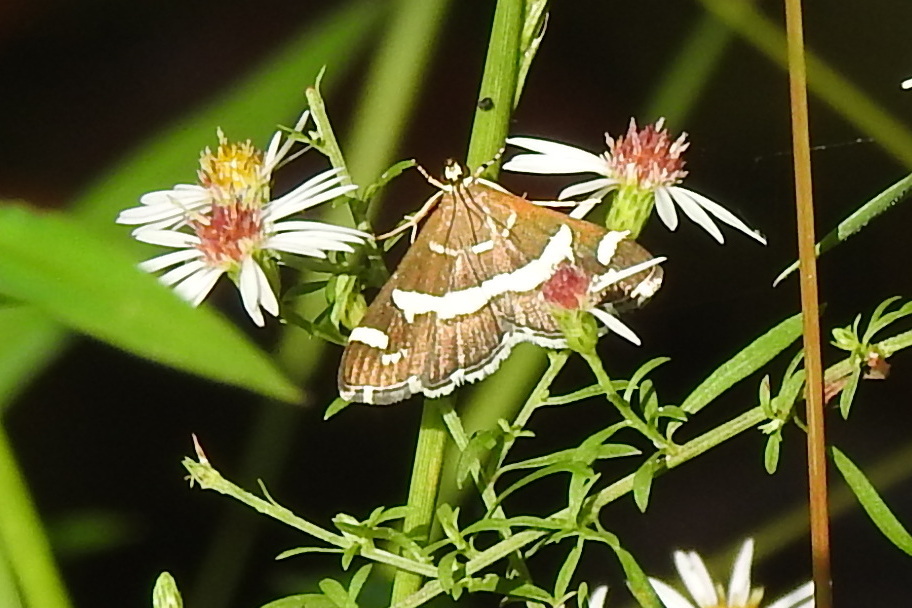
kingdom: Animalia
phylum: Arthropoda
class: Insecta
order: Lepidoptera
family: Crambidae
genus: Spoladea
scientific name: Spoladea recurvalis
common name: Beet webworm moth
